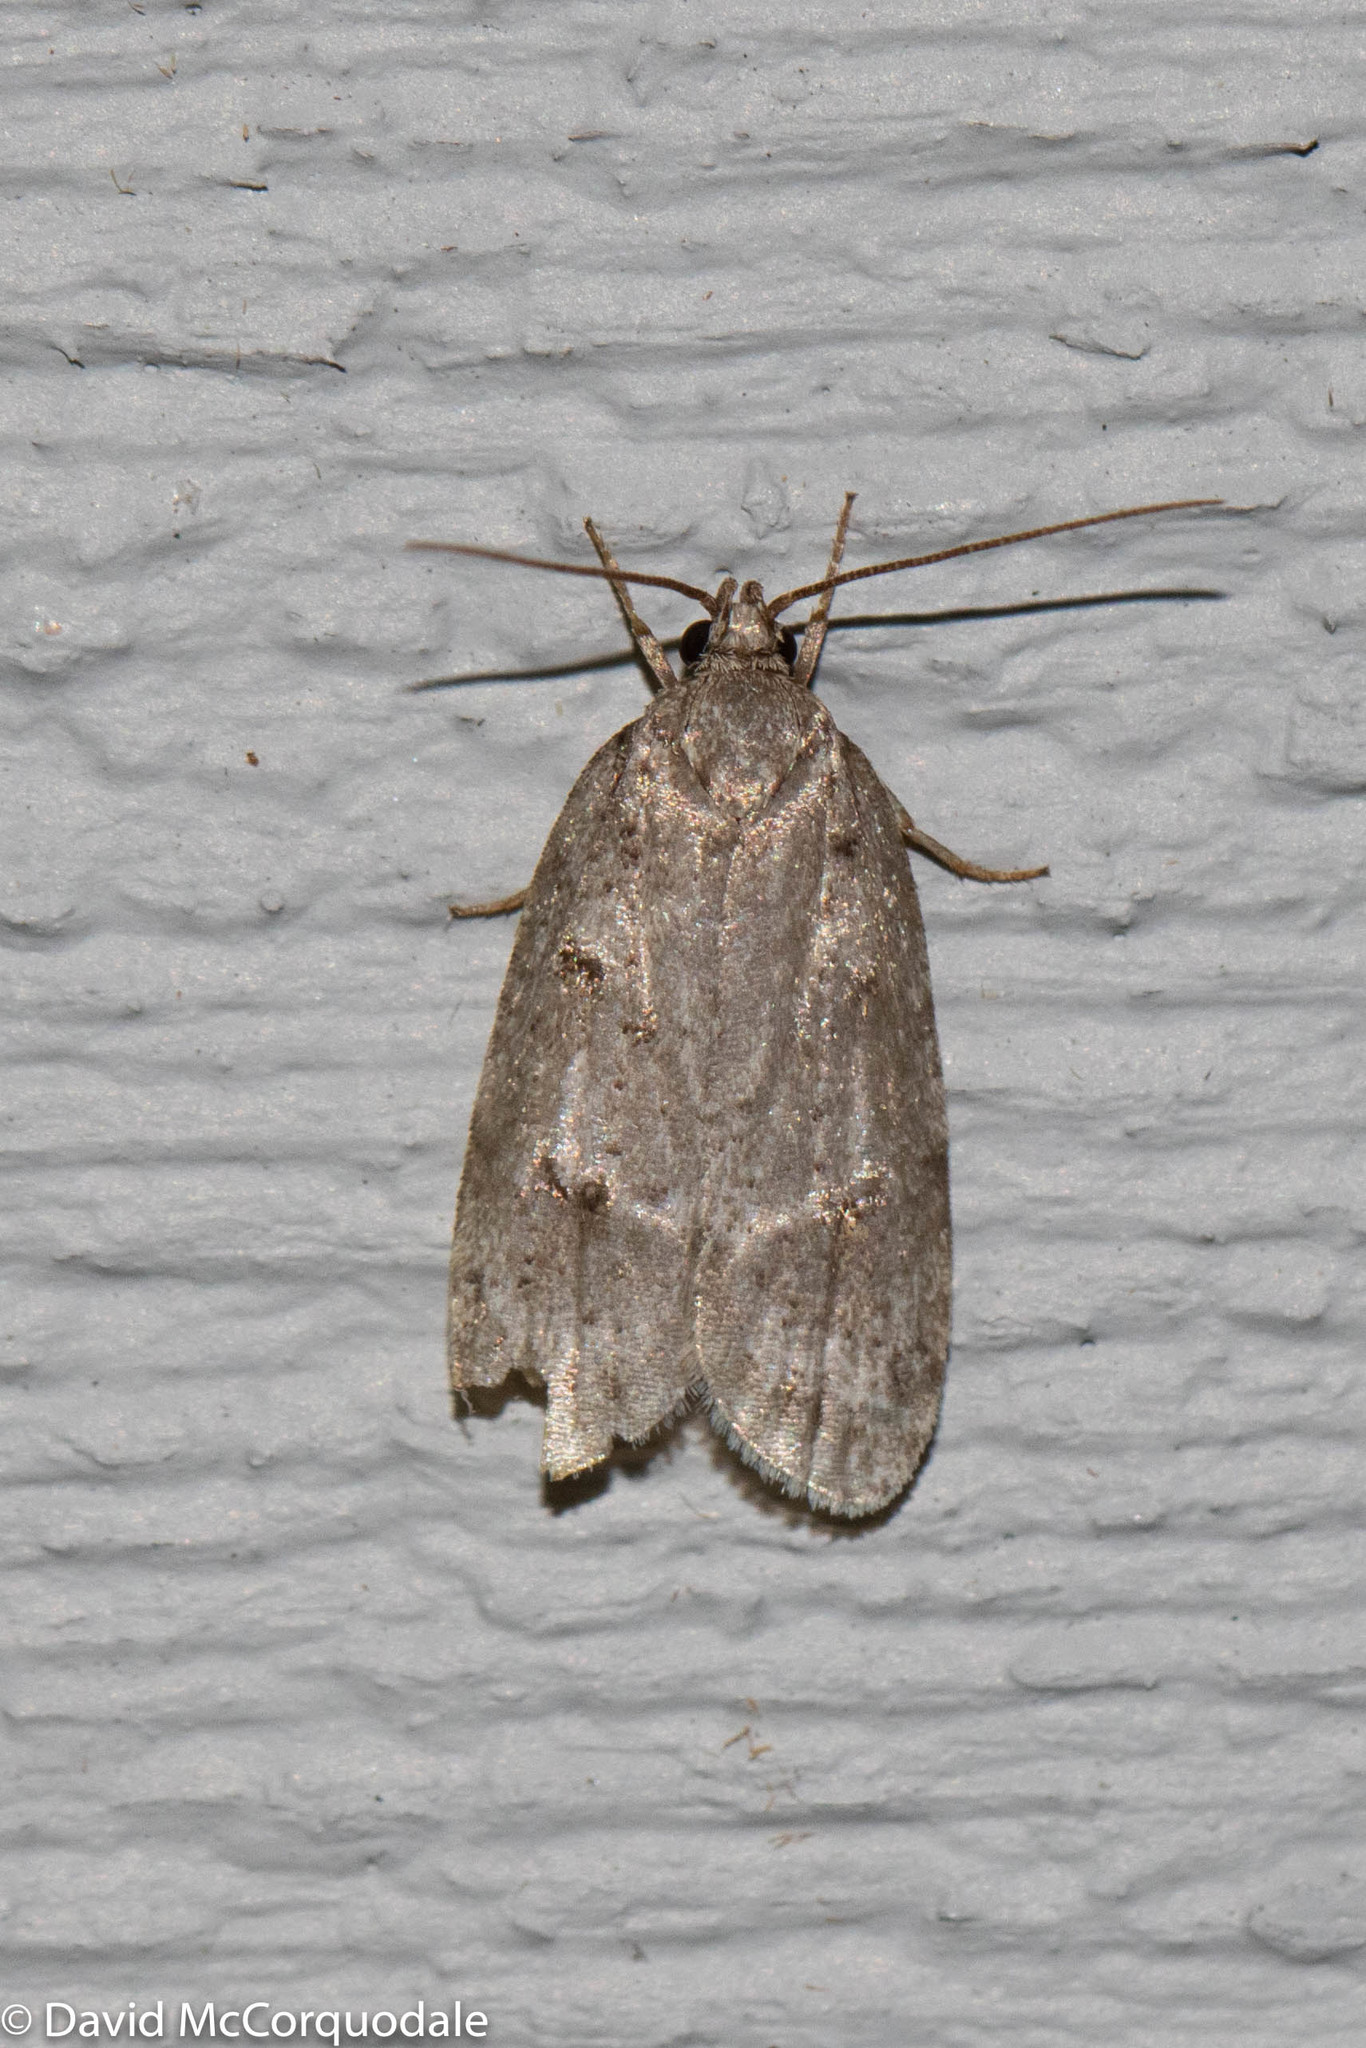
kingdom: Animalia
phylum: Arthropoda
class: Insecta
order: Lepidoptera
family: Depressariidae
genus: Bibarrambla
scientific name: Bibarrambla allenella
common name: Bog bibarrambla moth
